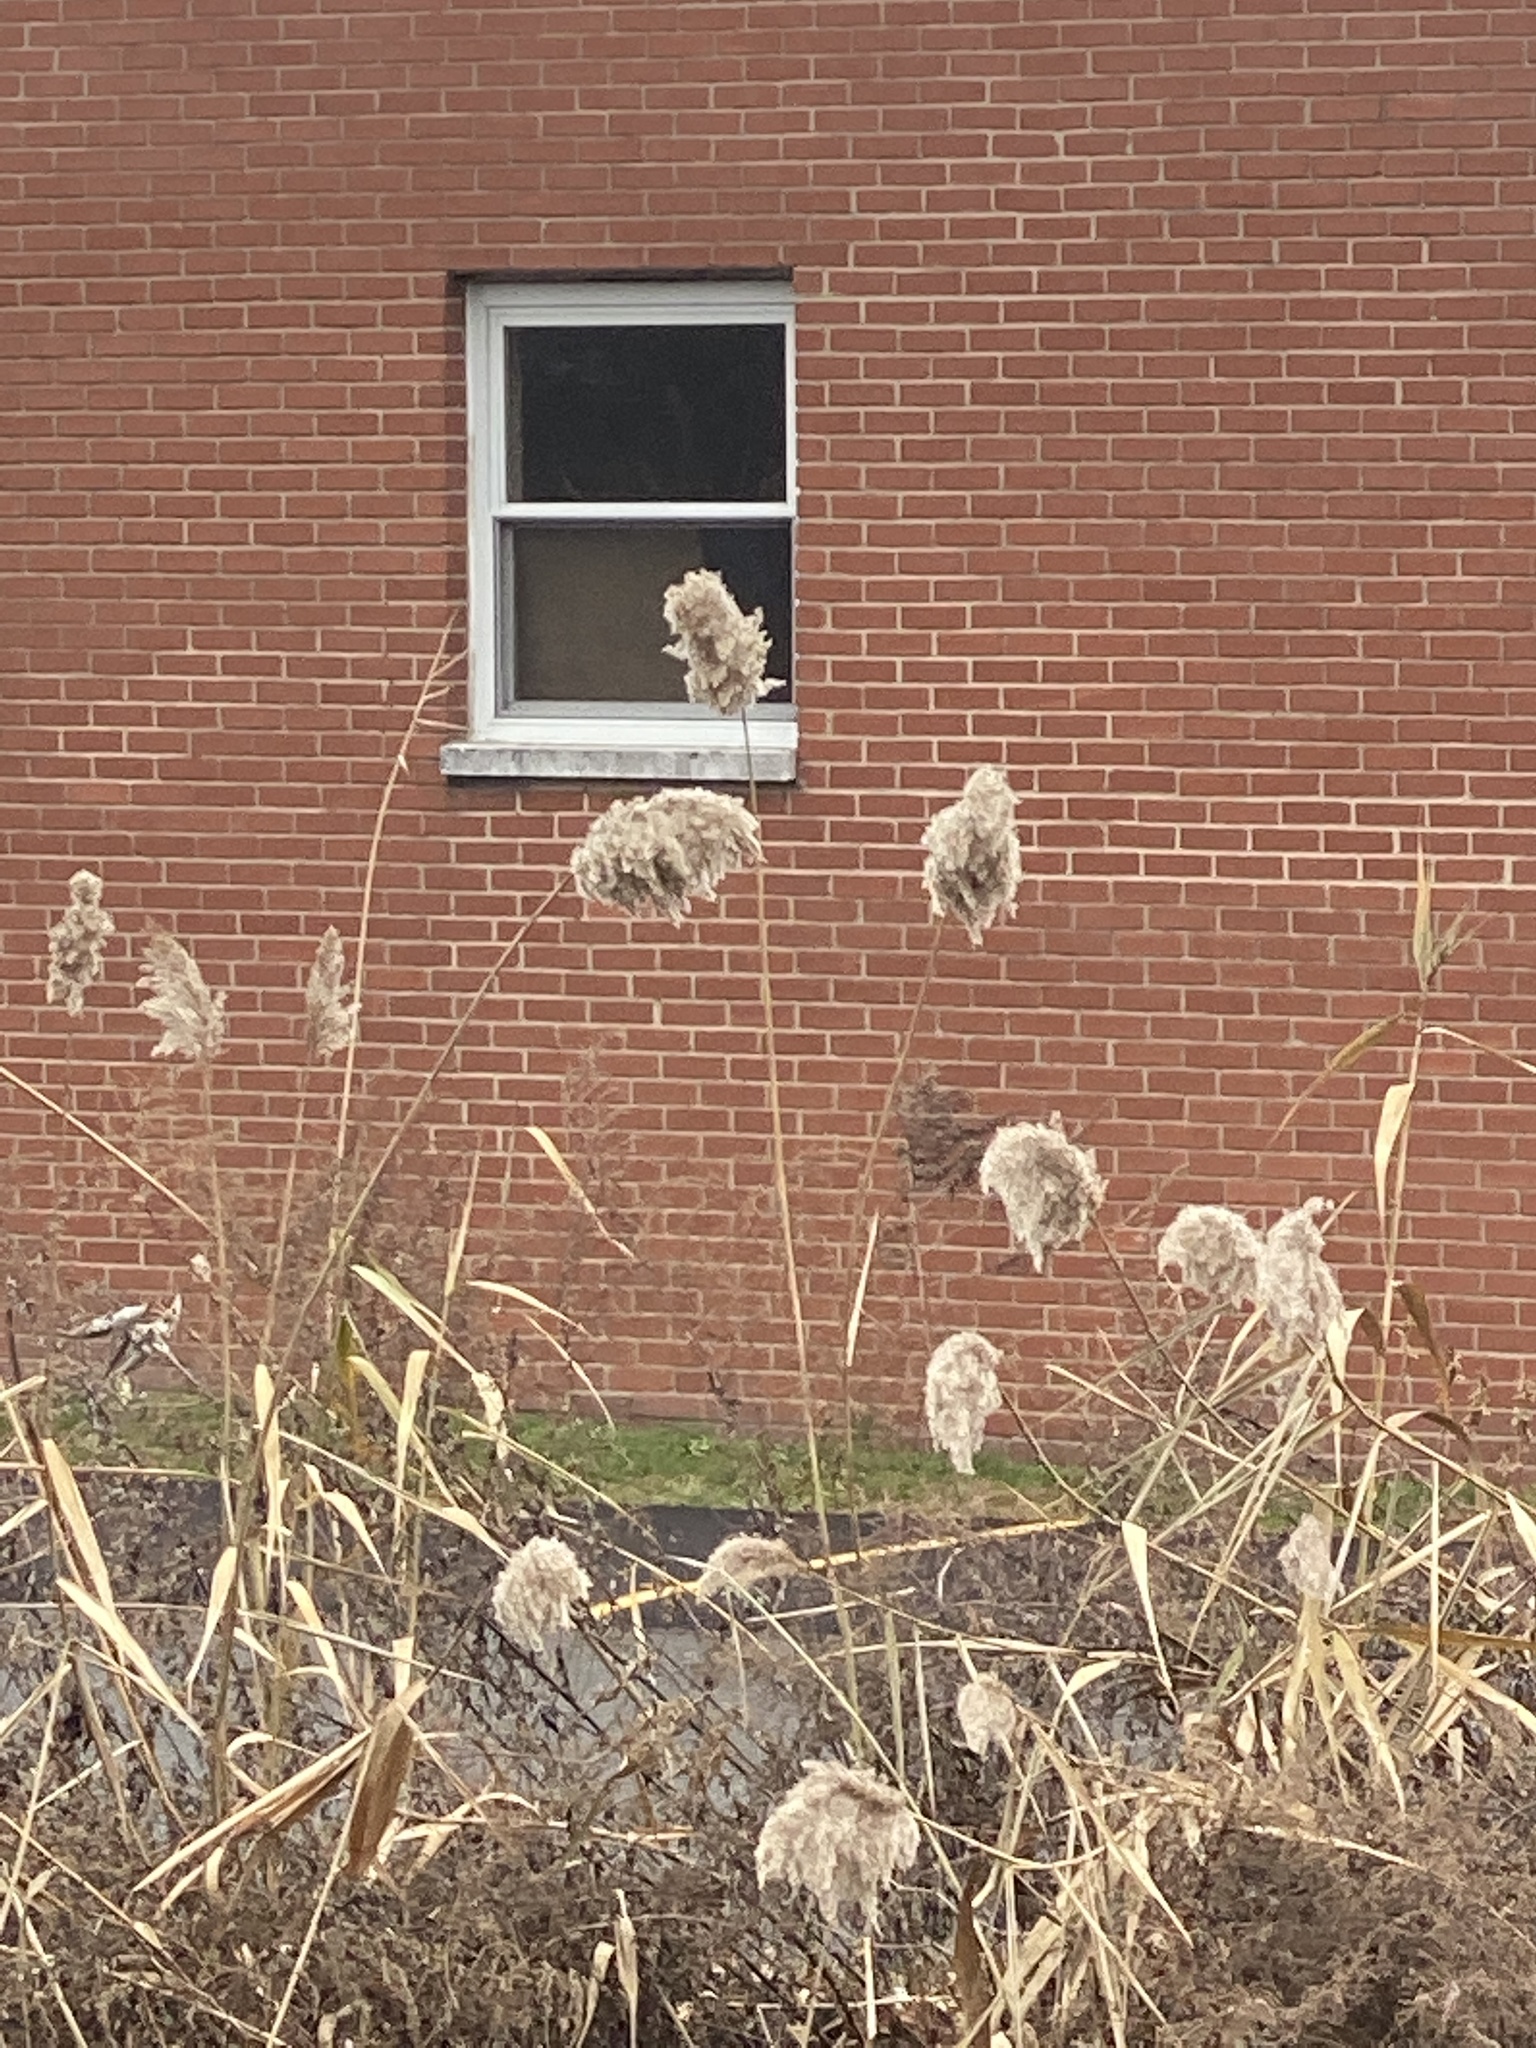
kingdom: Plantae
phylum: Tracheophyta
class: Liliopsida
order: Poales
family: Poaceae
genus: Phragmites
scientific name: Phragmites australis
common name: Common reed
